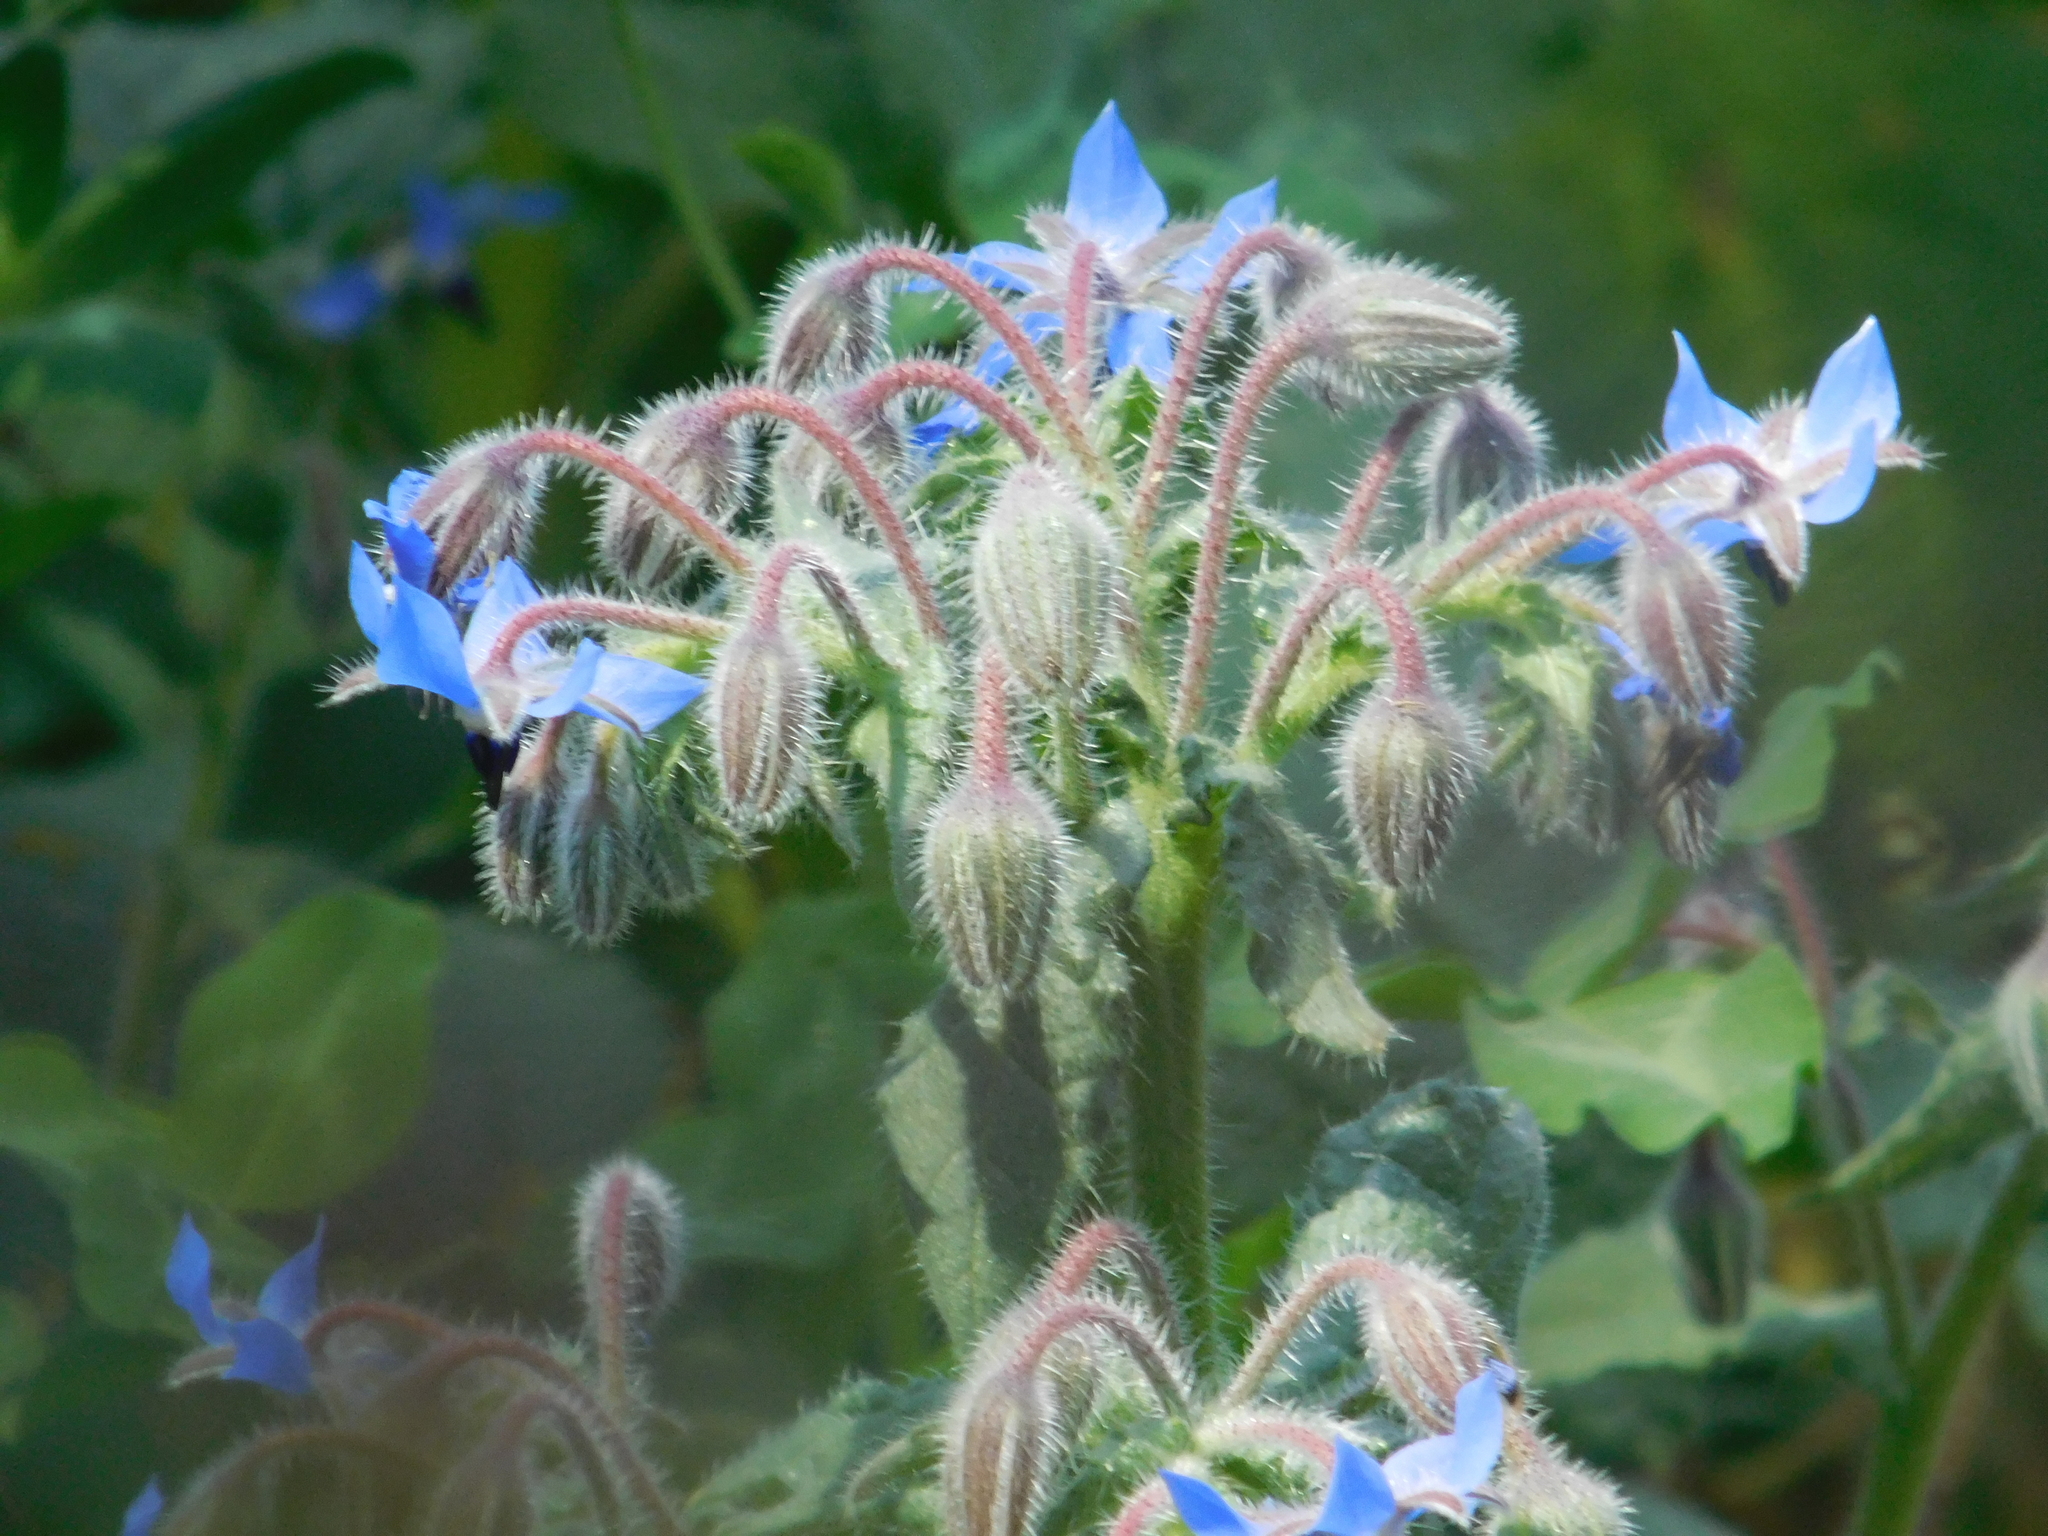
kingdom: Plantae
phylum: Tracheophyta
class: Magnoliopsida
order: Boraginales
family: Boraginaceae
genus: Borago
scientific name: Borago officinalis
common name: Borage
